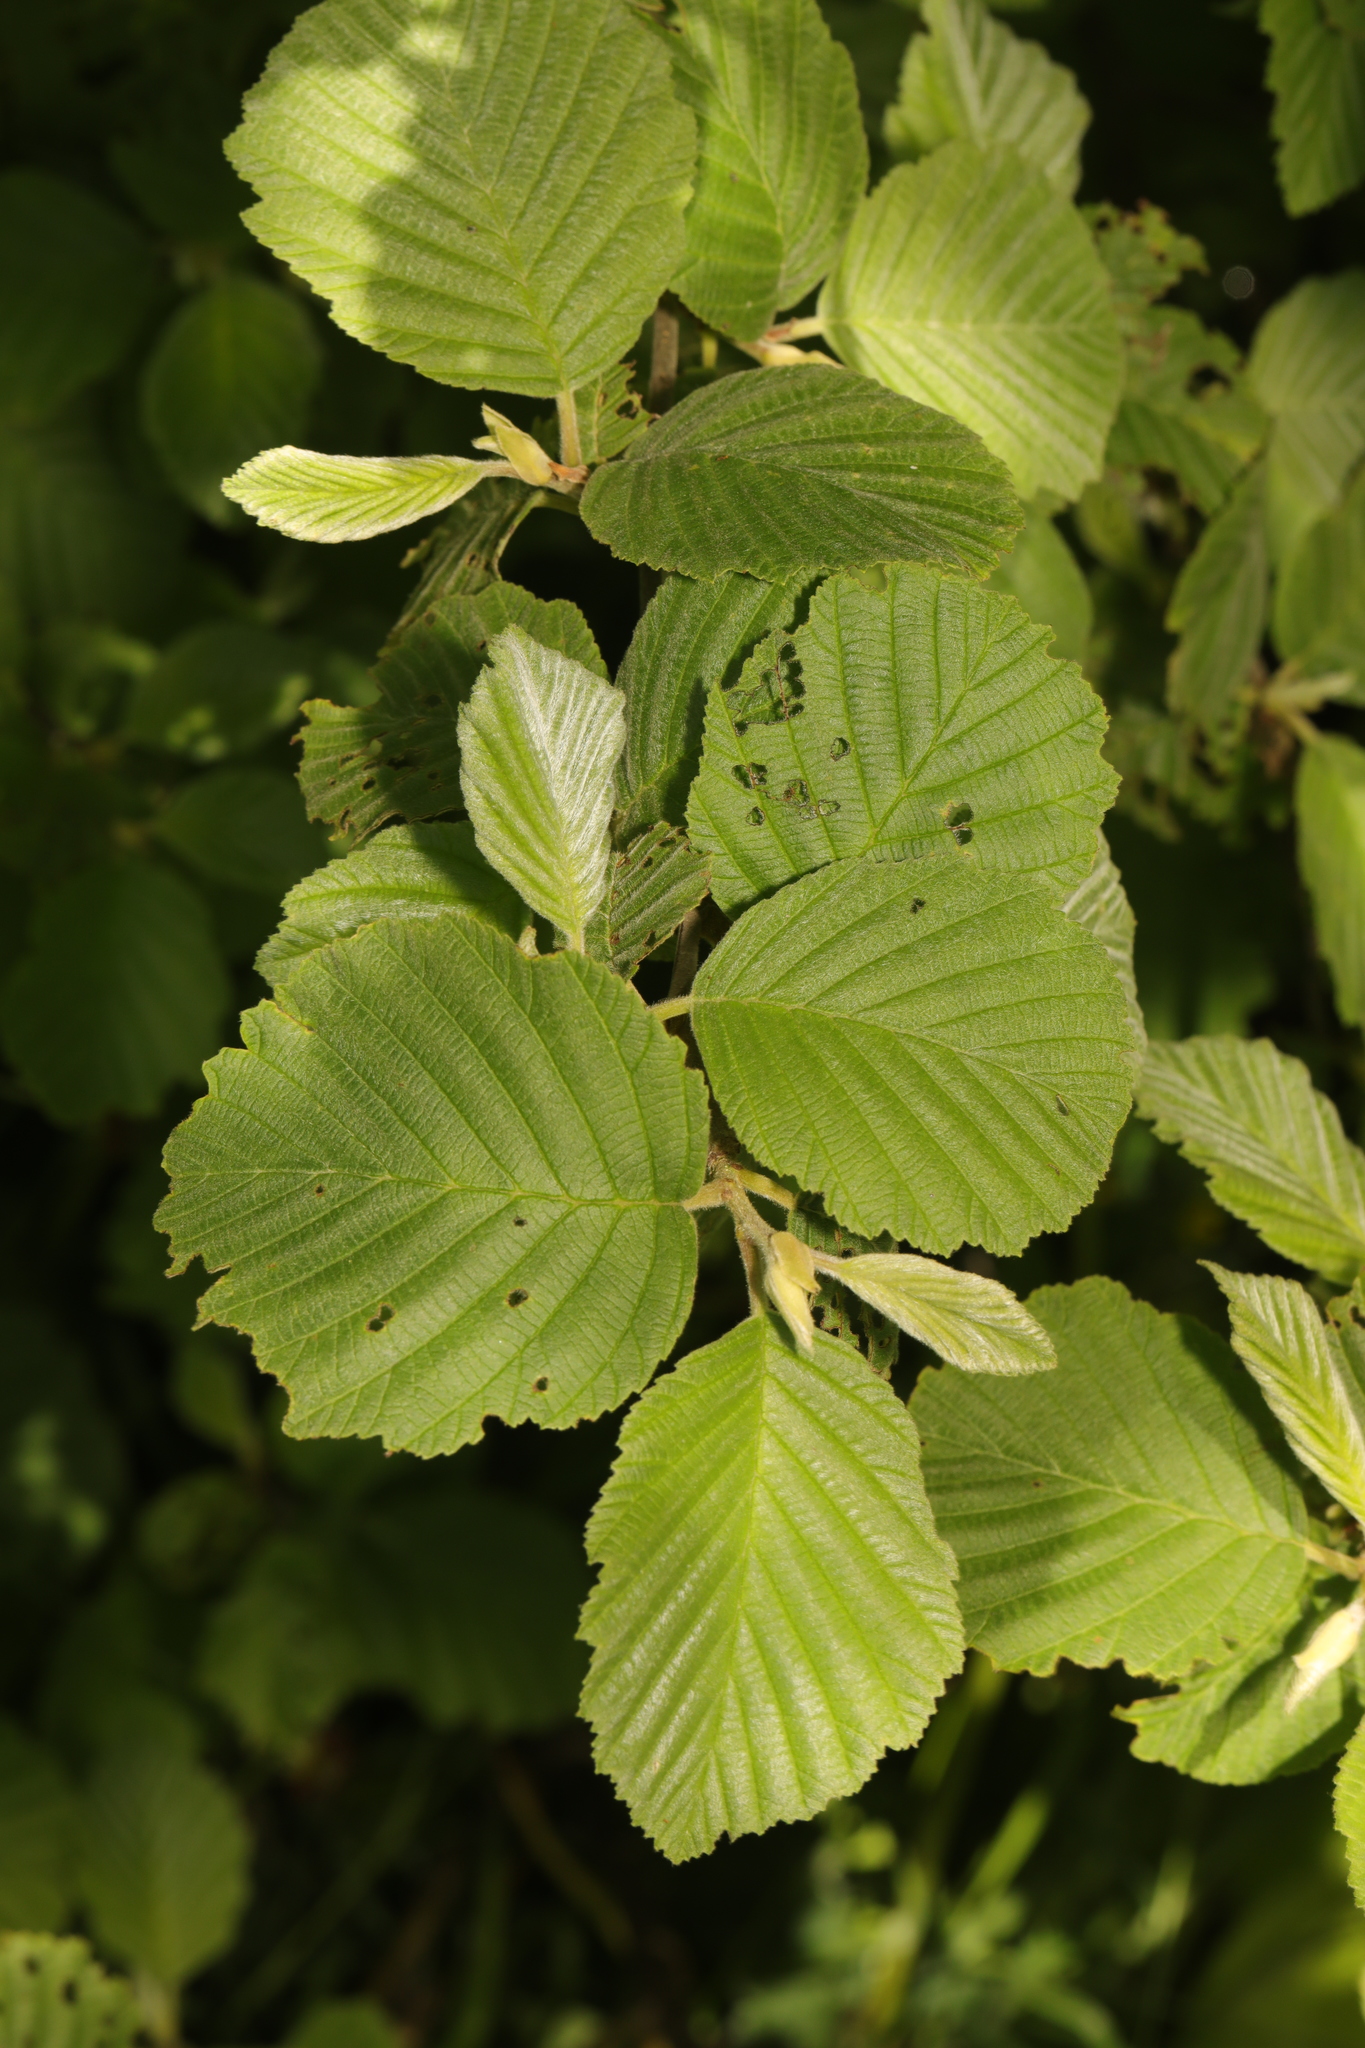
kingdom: Plantae
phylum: Tracheophyta
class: Magnoliopsida
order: Fagales
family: Betulaceae
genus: Alnus
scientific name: Alnus incana
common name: Grey alder
